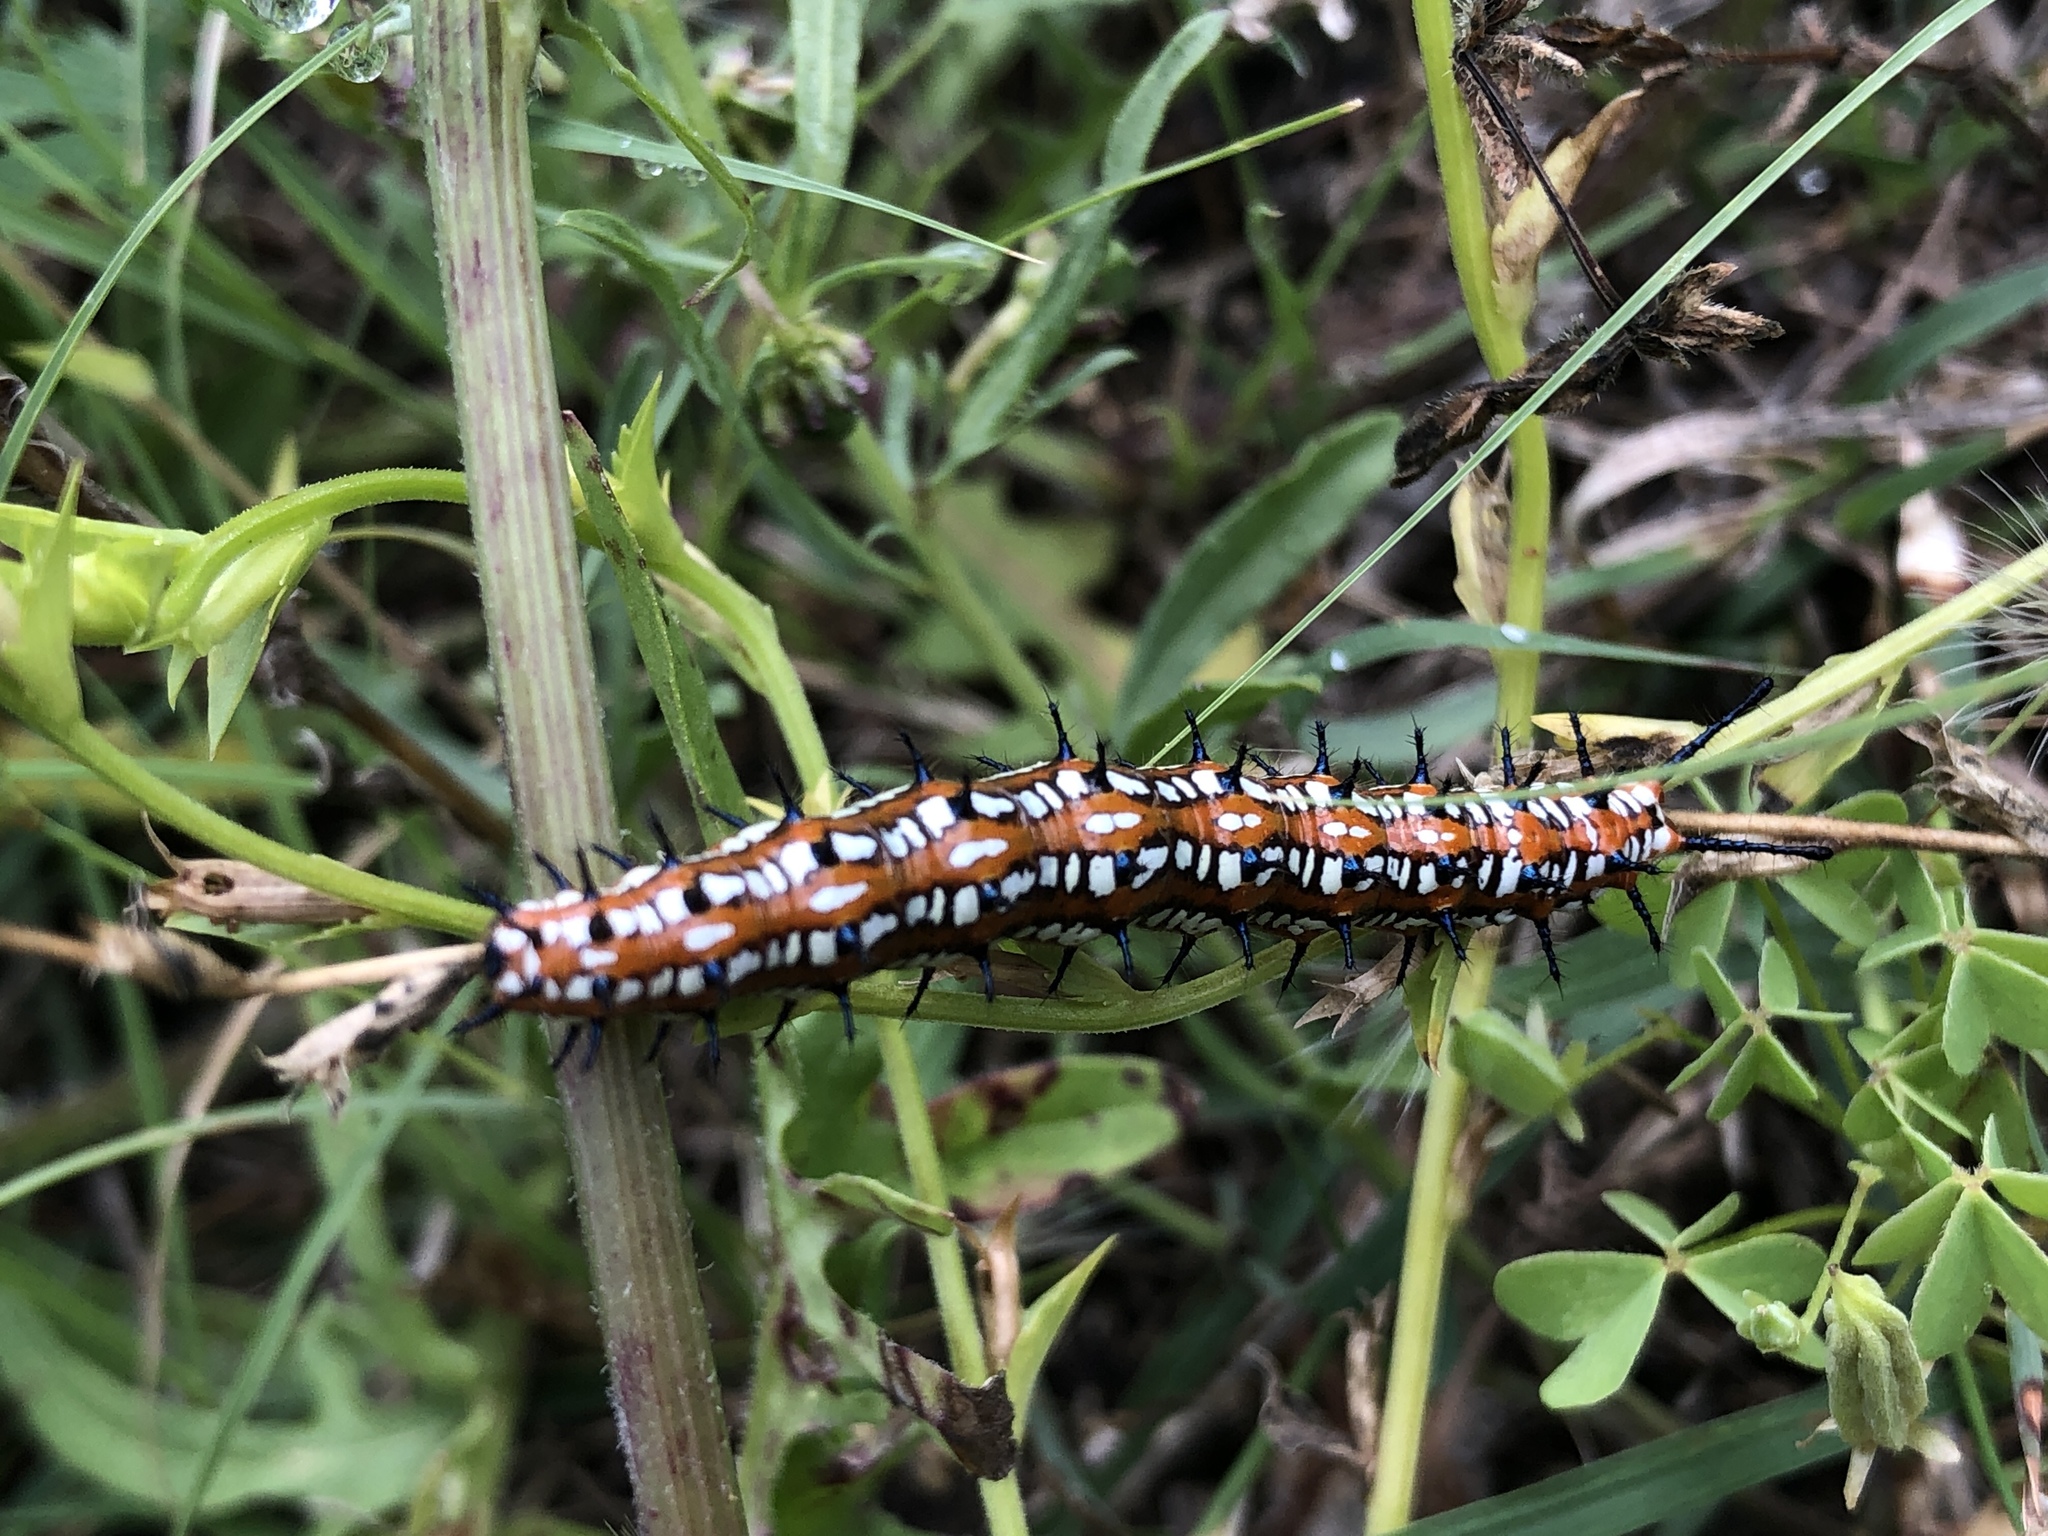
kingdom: Animalia
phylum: Arthropoda
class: Insecta
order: Lepidoptera
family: Nymphalidae
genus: Euptoieta
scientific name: Euptoieta claudia
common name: Variegated fritillary
